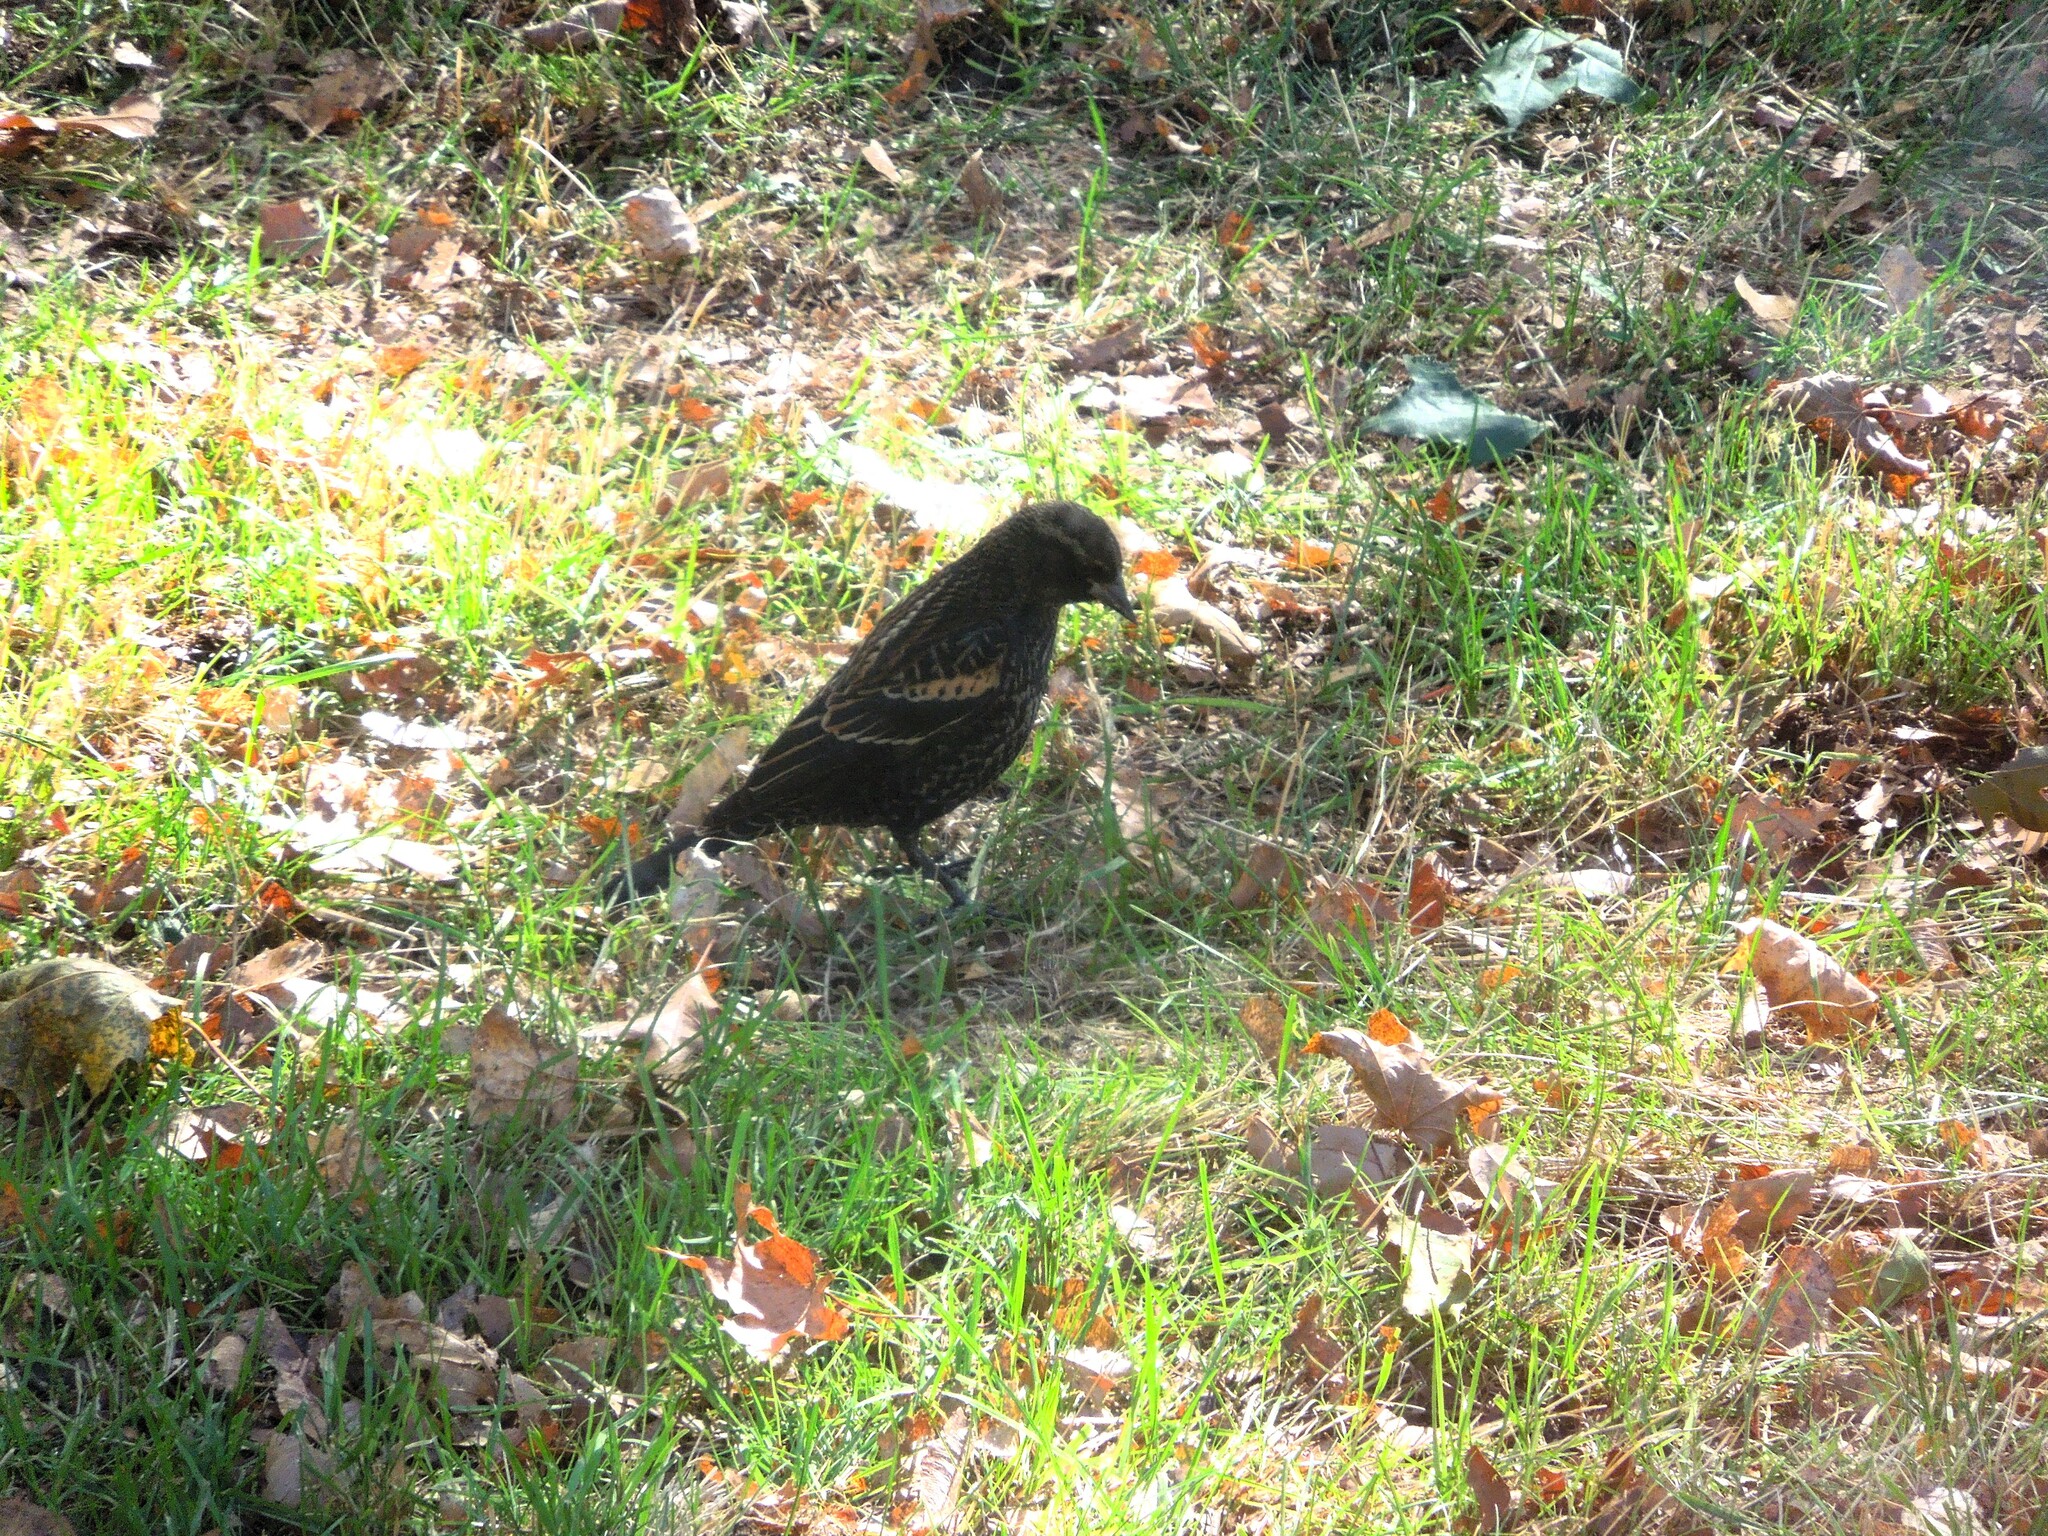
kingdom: Animalia
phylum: Chordata
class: Aves
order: Passeriformes
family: Icteridae
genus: Agelaius
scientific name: Agelaius phoeniceus
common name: Red-winged blackbird
